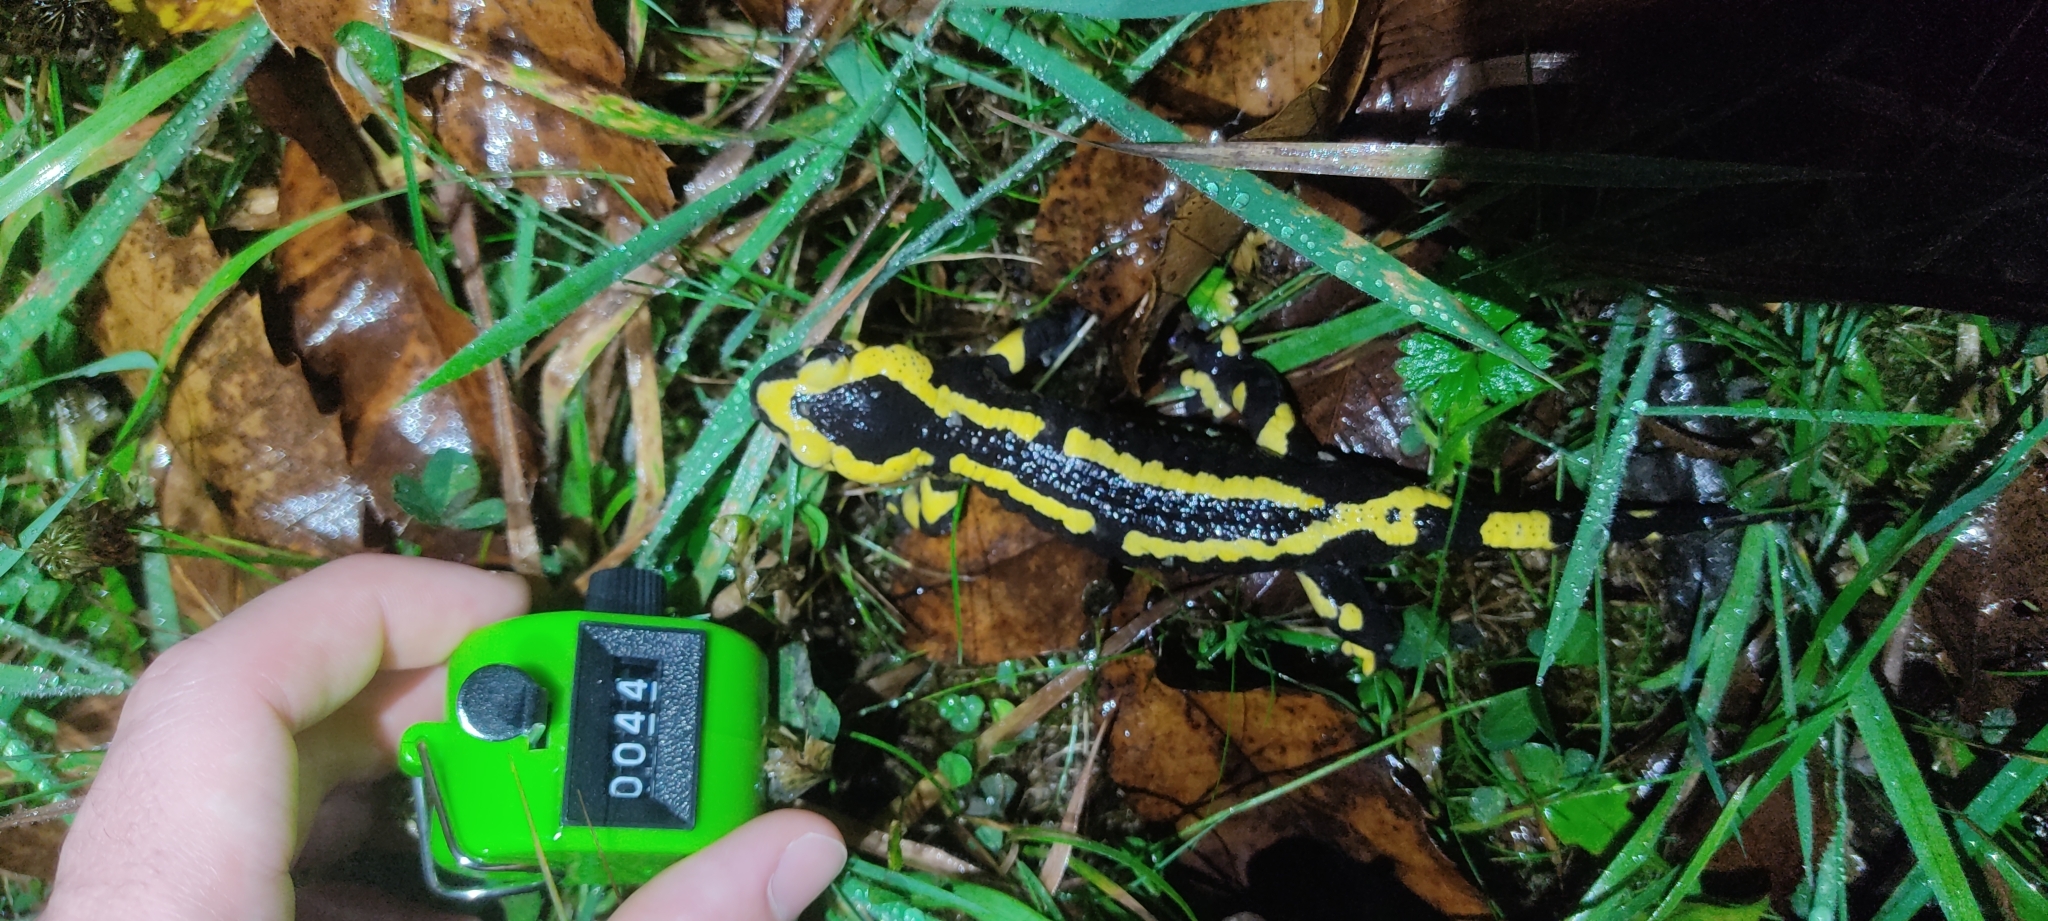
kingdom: Animalia
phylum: Chordata
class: Amphibia
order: Caudata
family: Salamandridae
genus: Salamandra
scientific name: Salamandra salamandra
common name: Fire salamander
